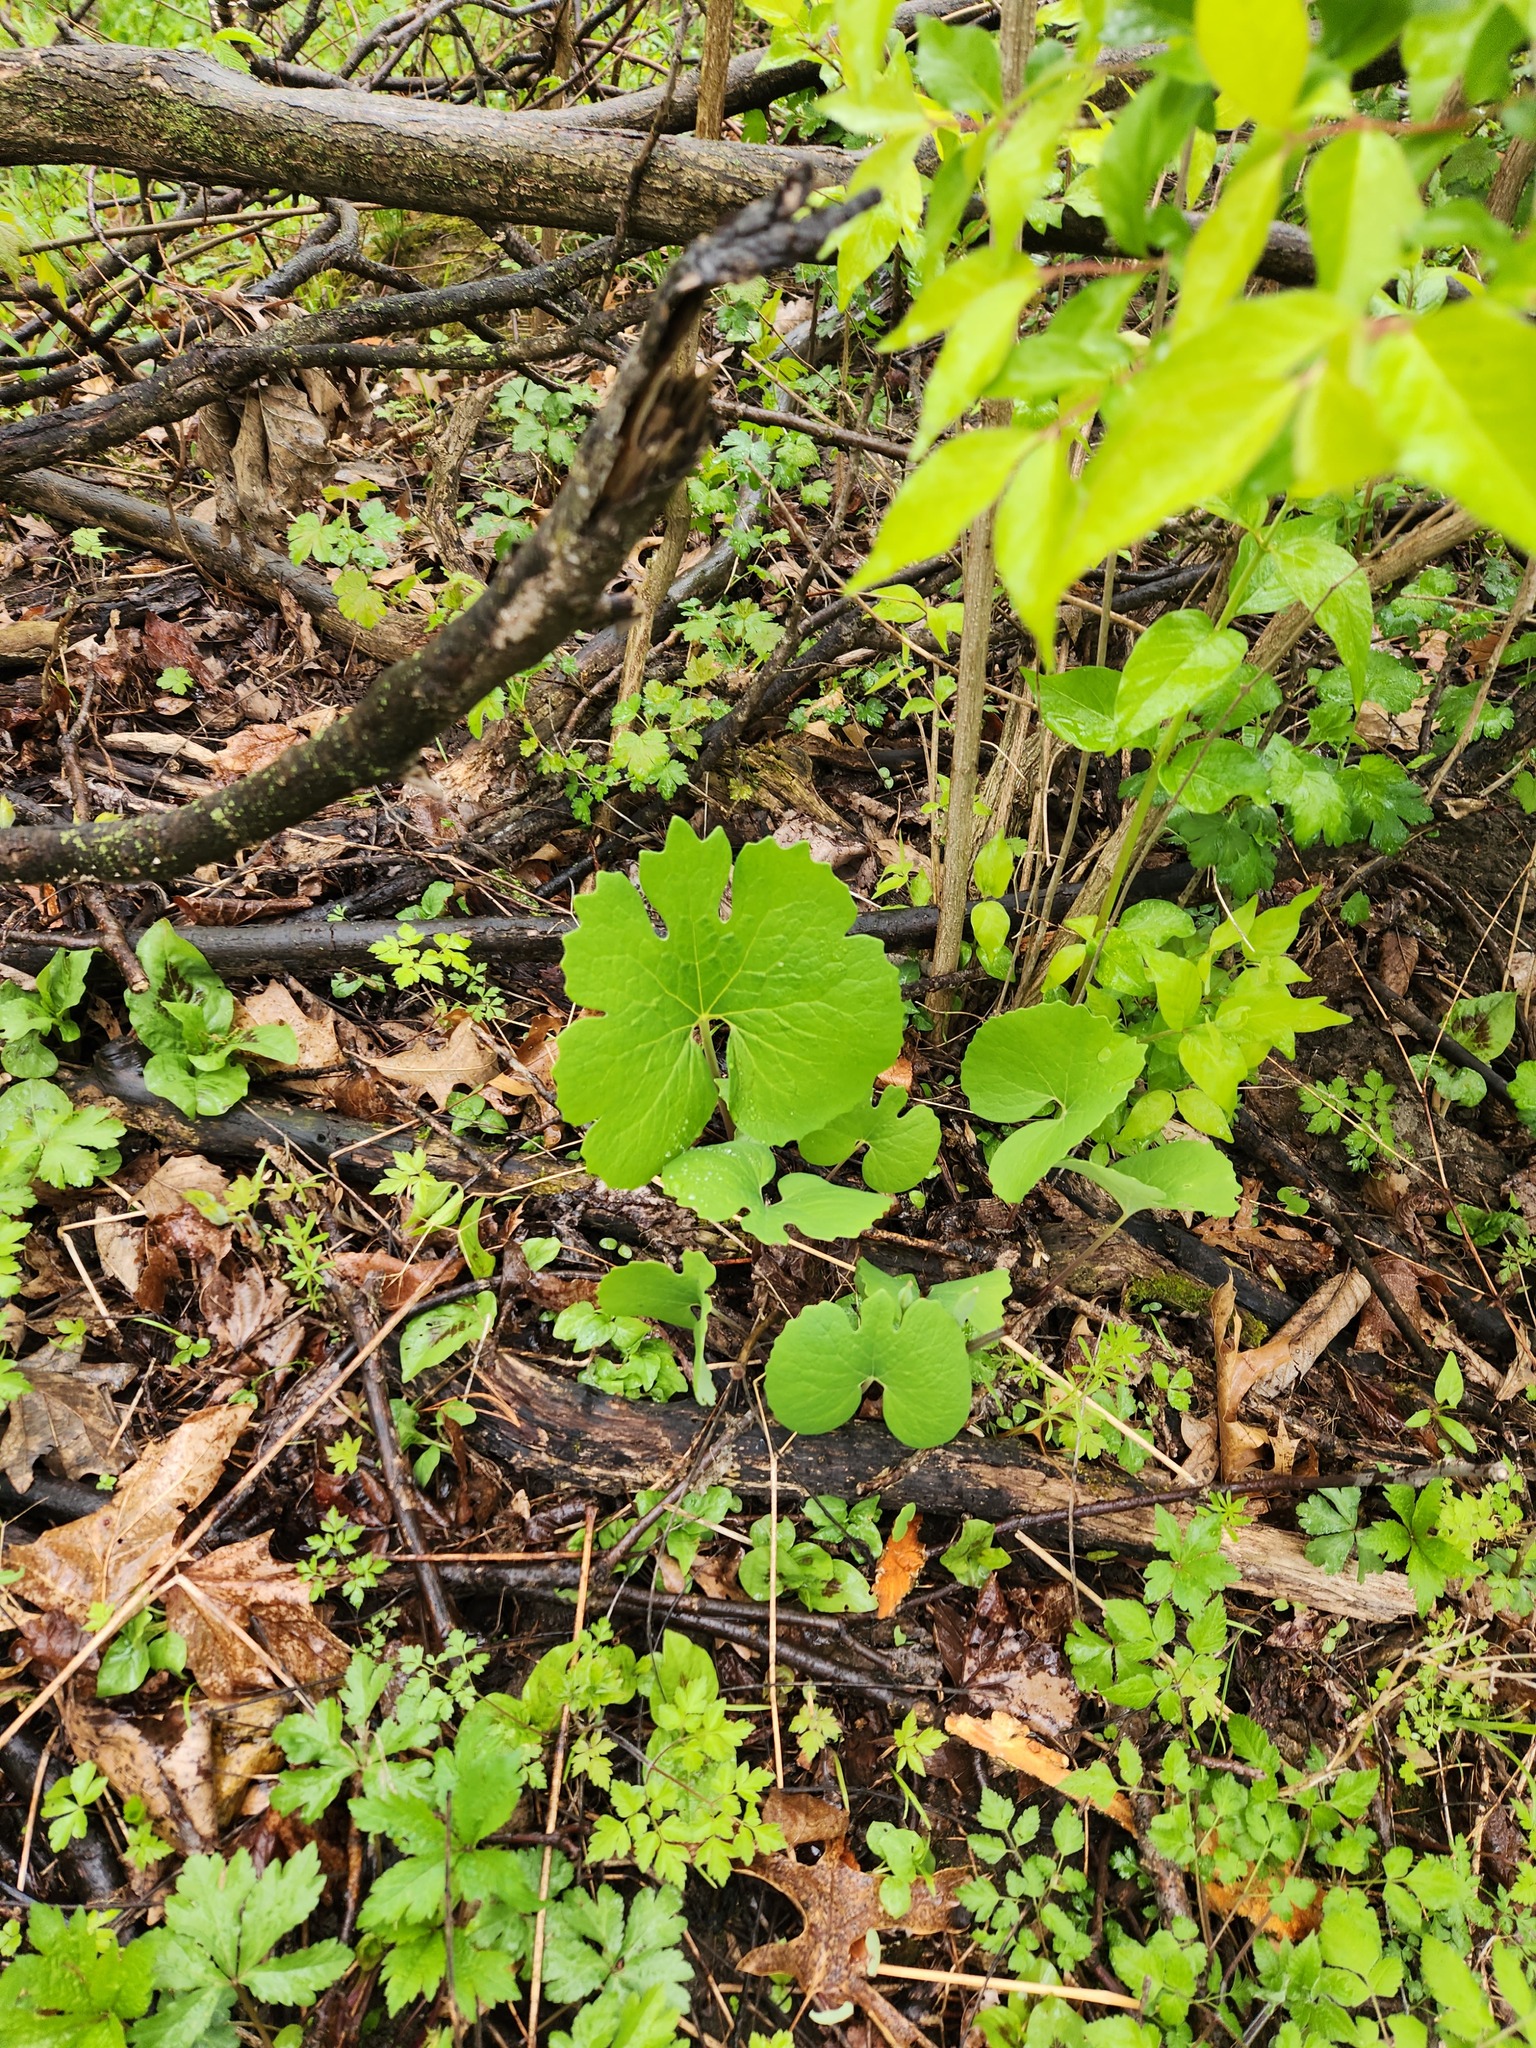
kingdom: Plantae
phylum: Tracheophyta
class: Magnoliopsida
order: Ranunculales
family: Papaveraceae
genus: Sanguinaria
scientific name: Sanguinaria canadensis
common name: Bloodroot
